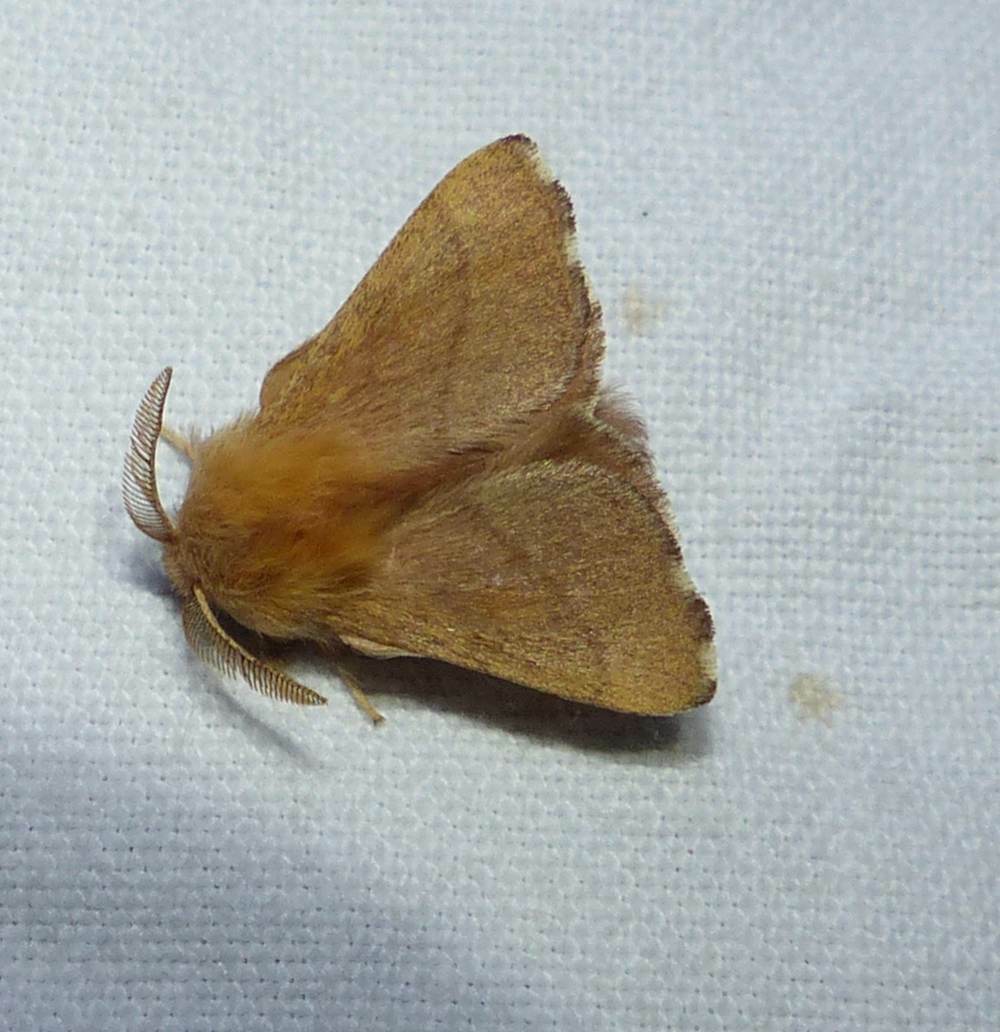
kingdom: Animalia
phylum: Arthropoda
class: Insecta
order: Lepidoptera
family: Lasiocampidae
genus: Malacosoma
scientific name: Malacosoma disstria
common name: Forest tent caterpillar
